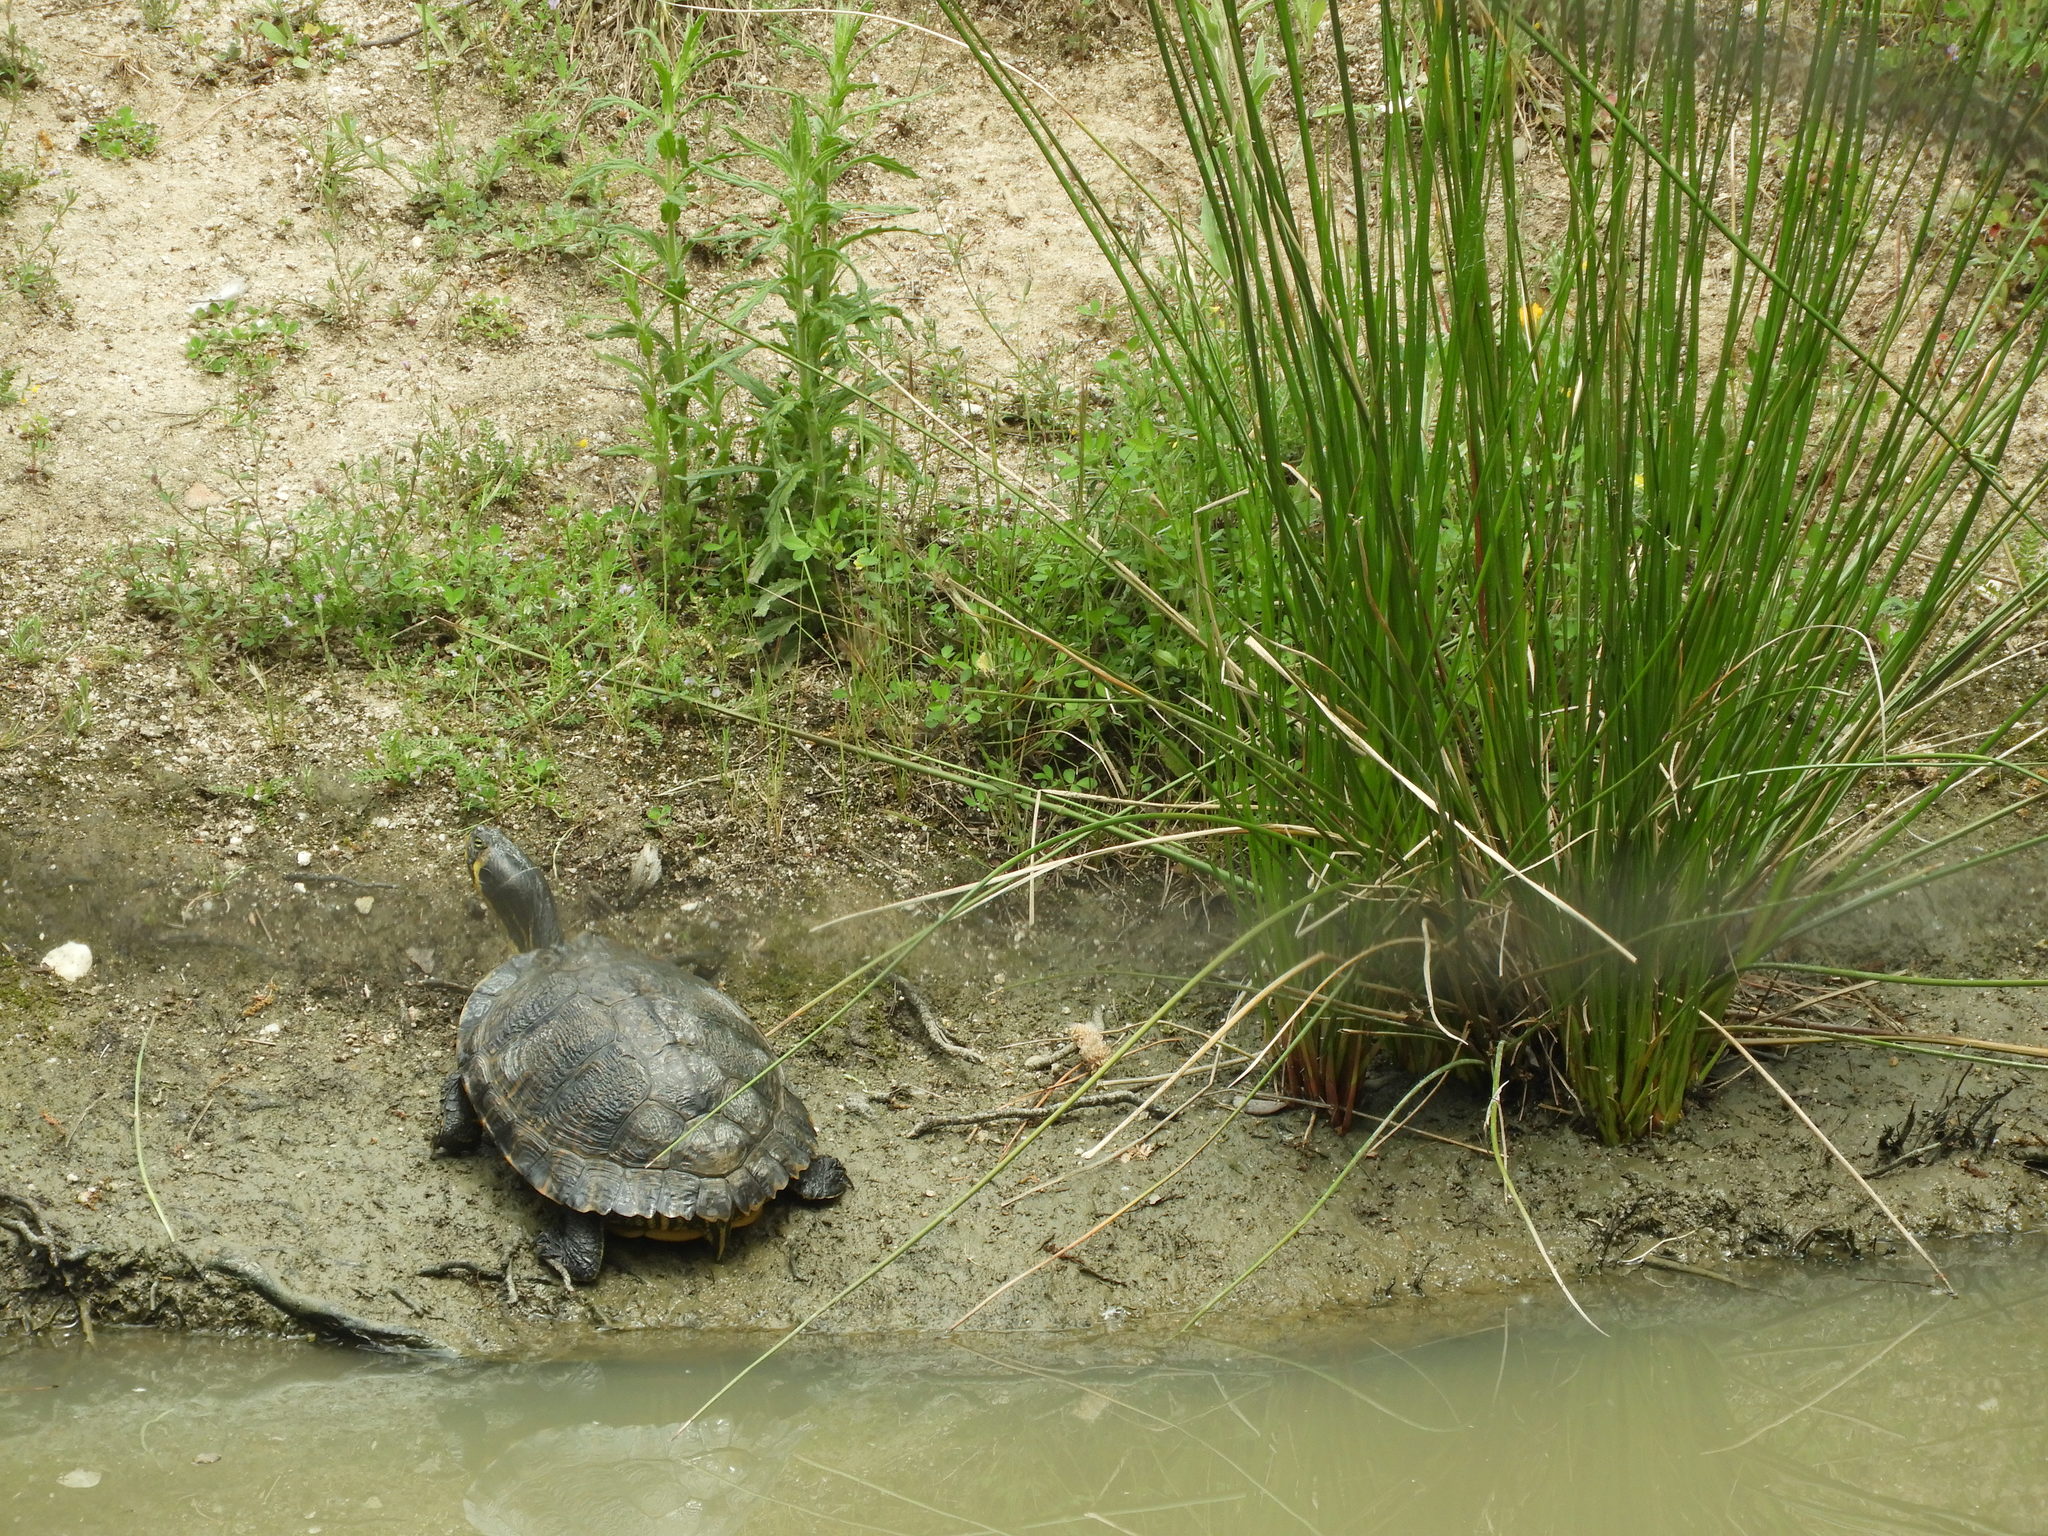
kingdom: Animalia
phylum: Chordata
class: Testudines
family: Emydidae
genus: Trachemys
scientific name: Trachemys scripta
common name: Slider
